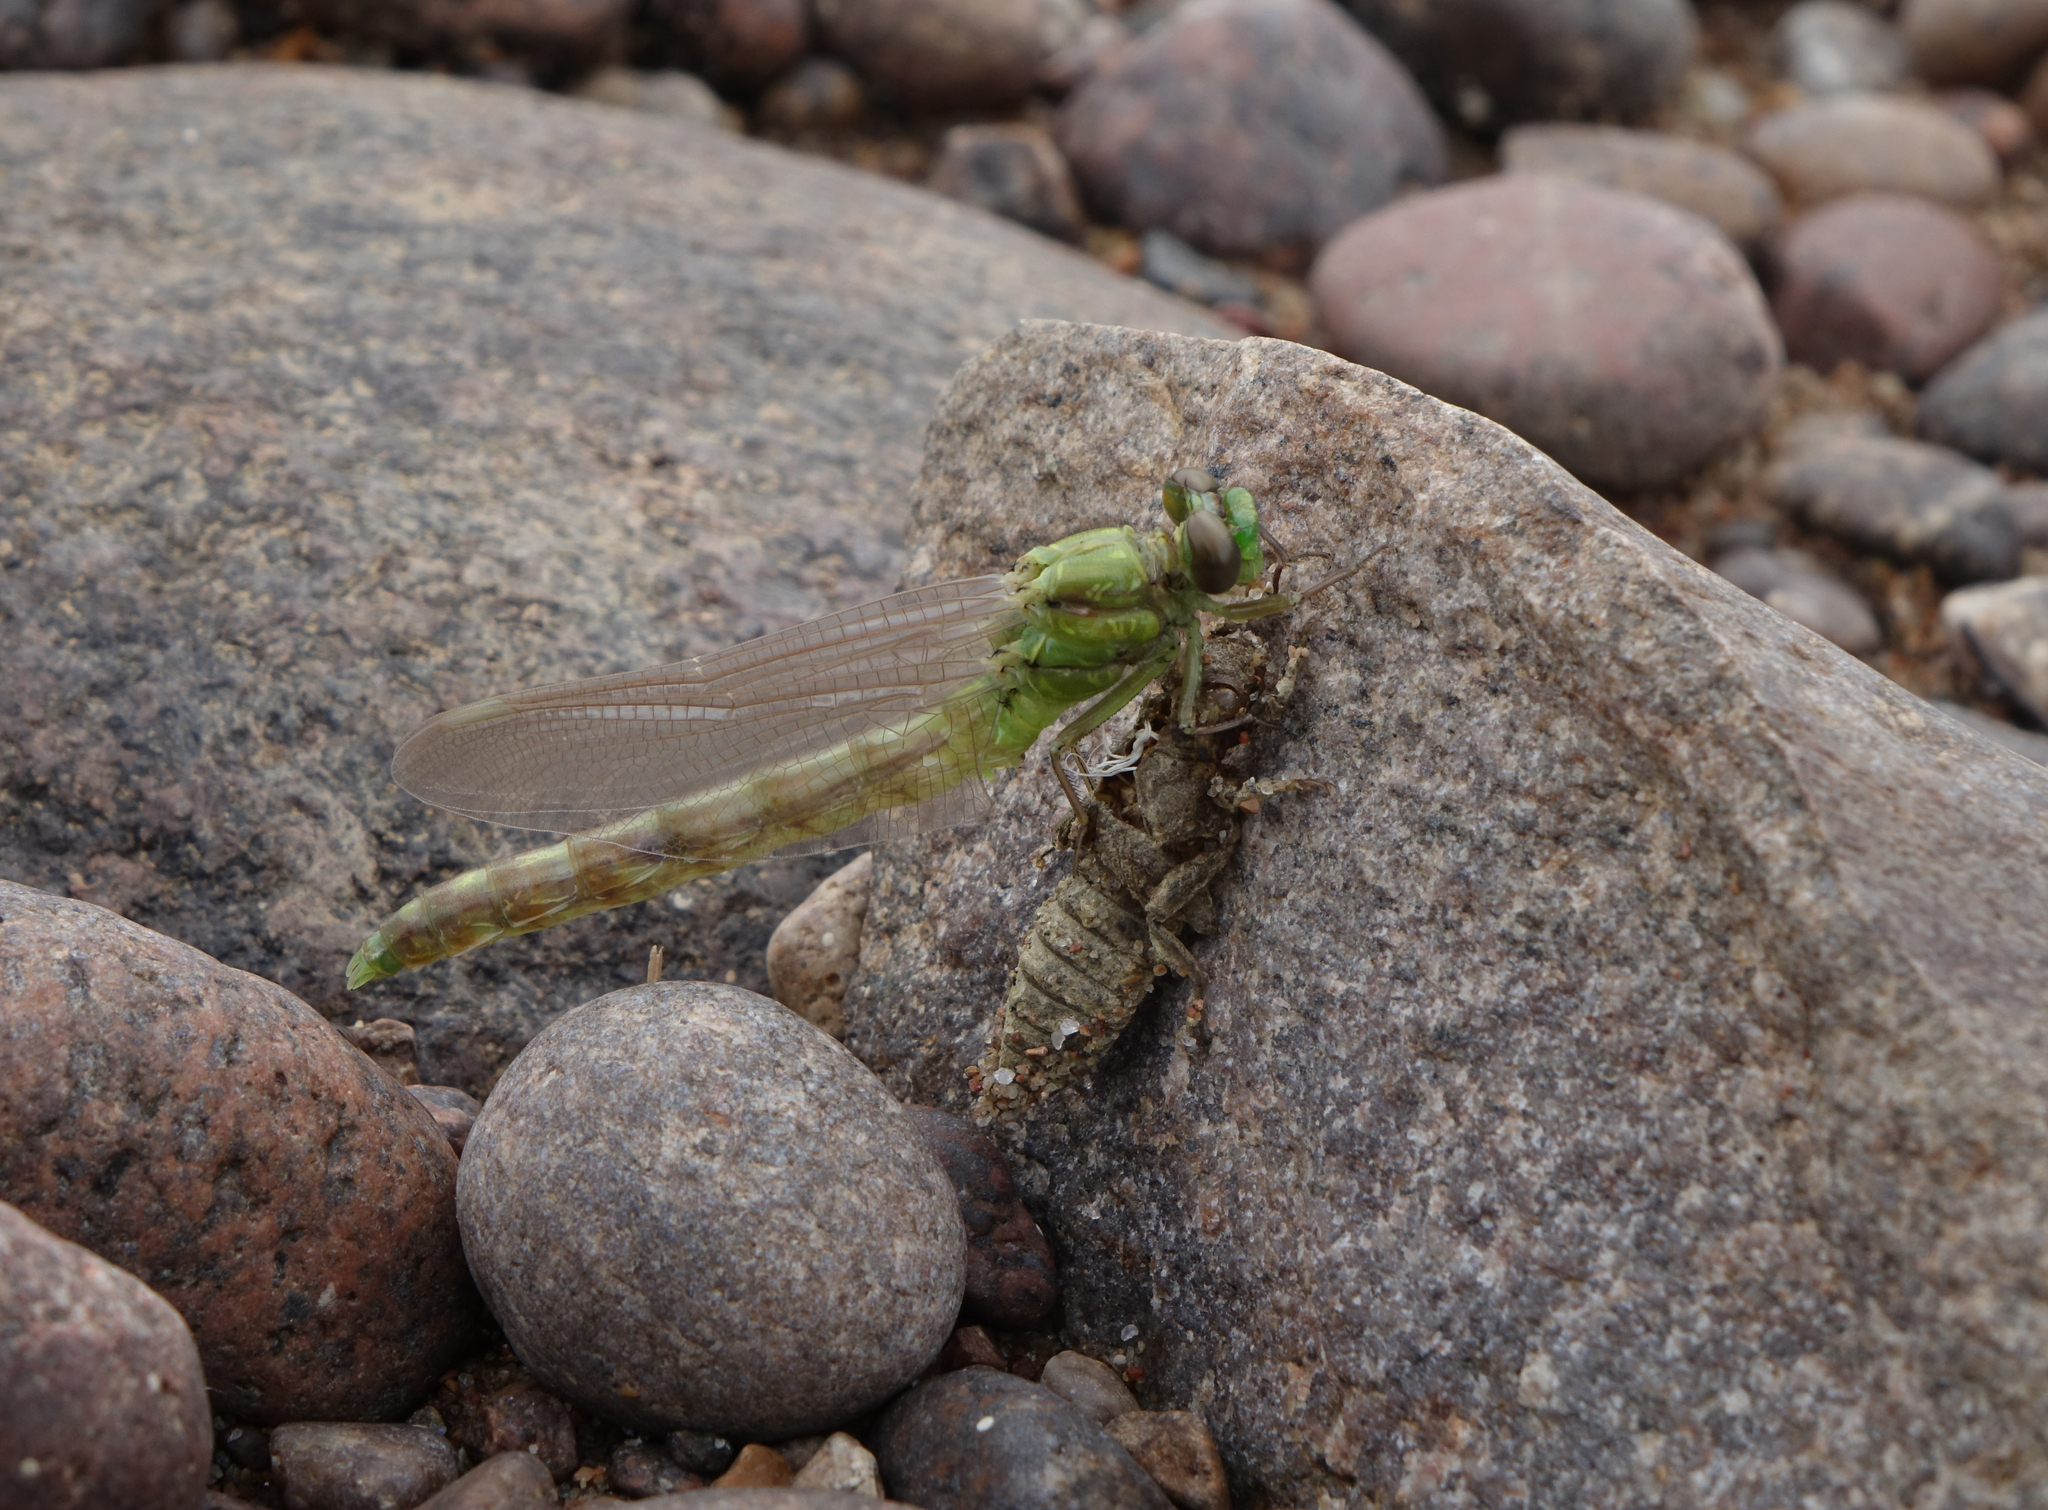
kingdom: Animalia
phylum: Arthropoda
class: Insecta
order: Odonata
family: Gomphidae
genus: Ophiogomphus
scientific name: Ophiogomphus obscurus
